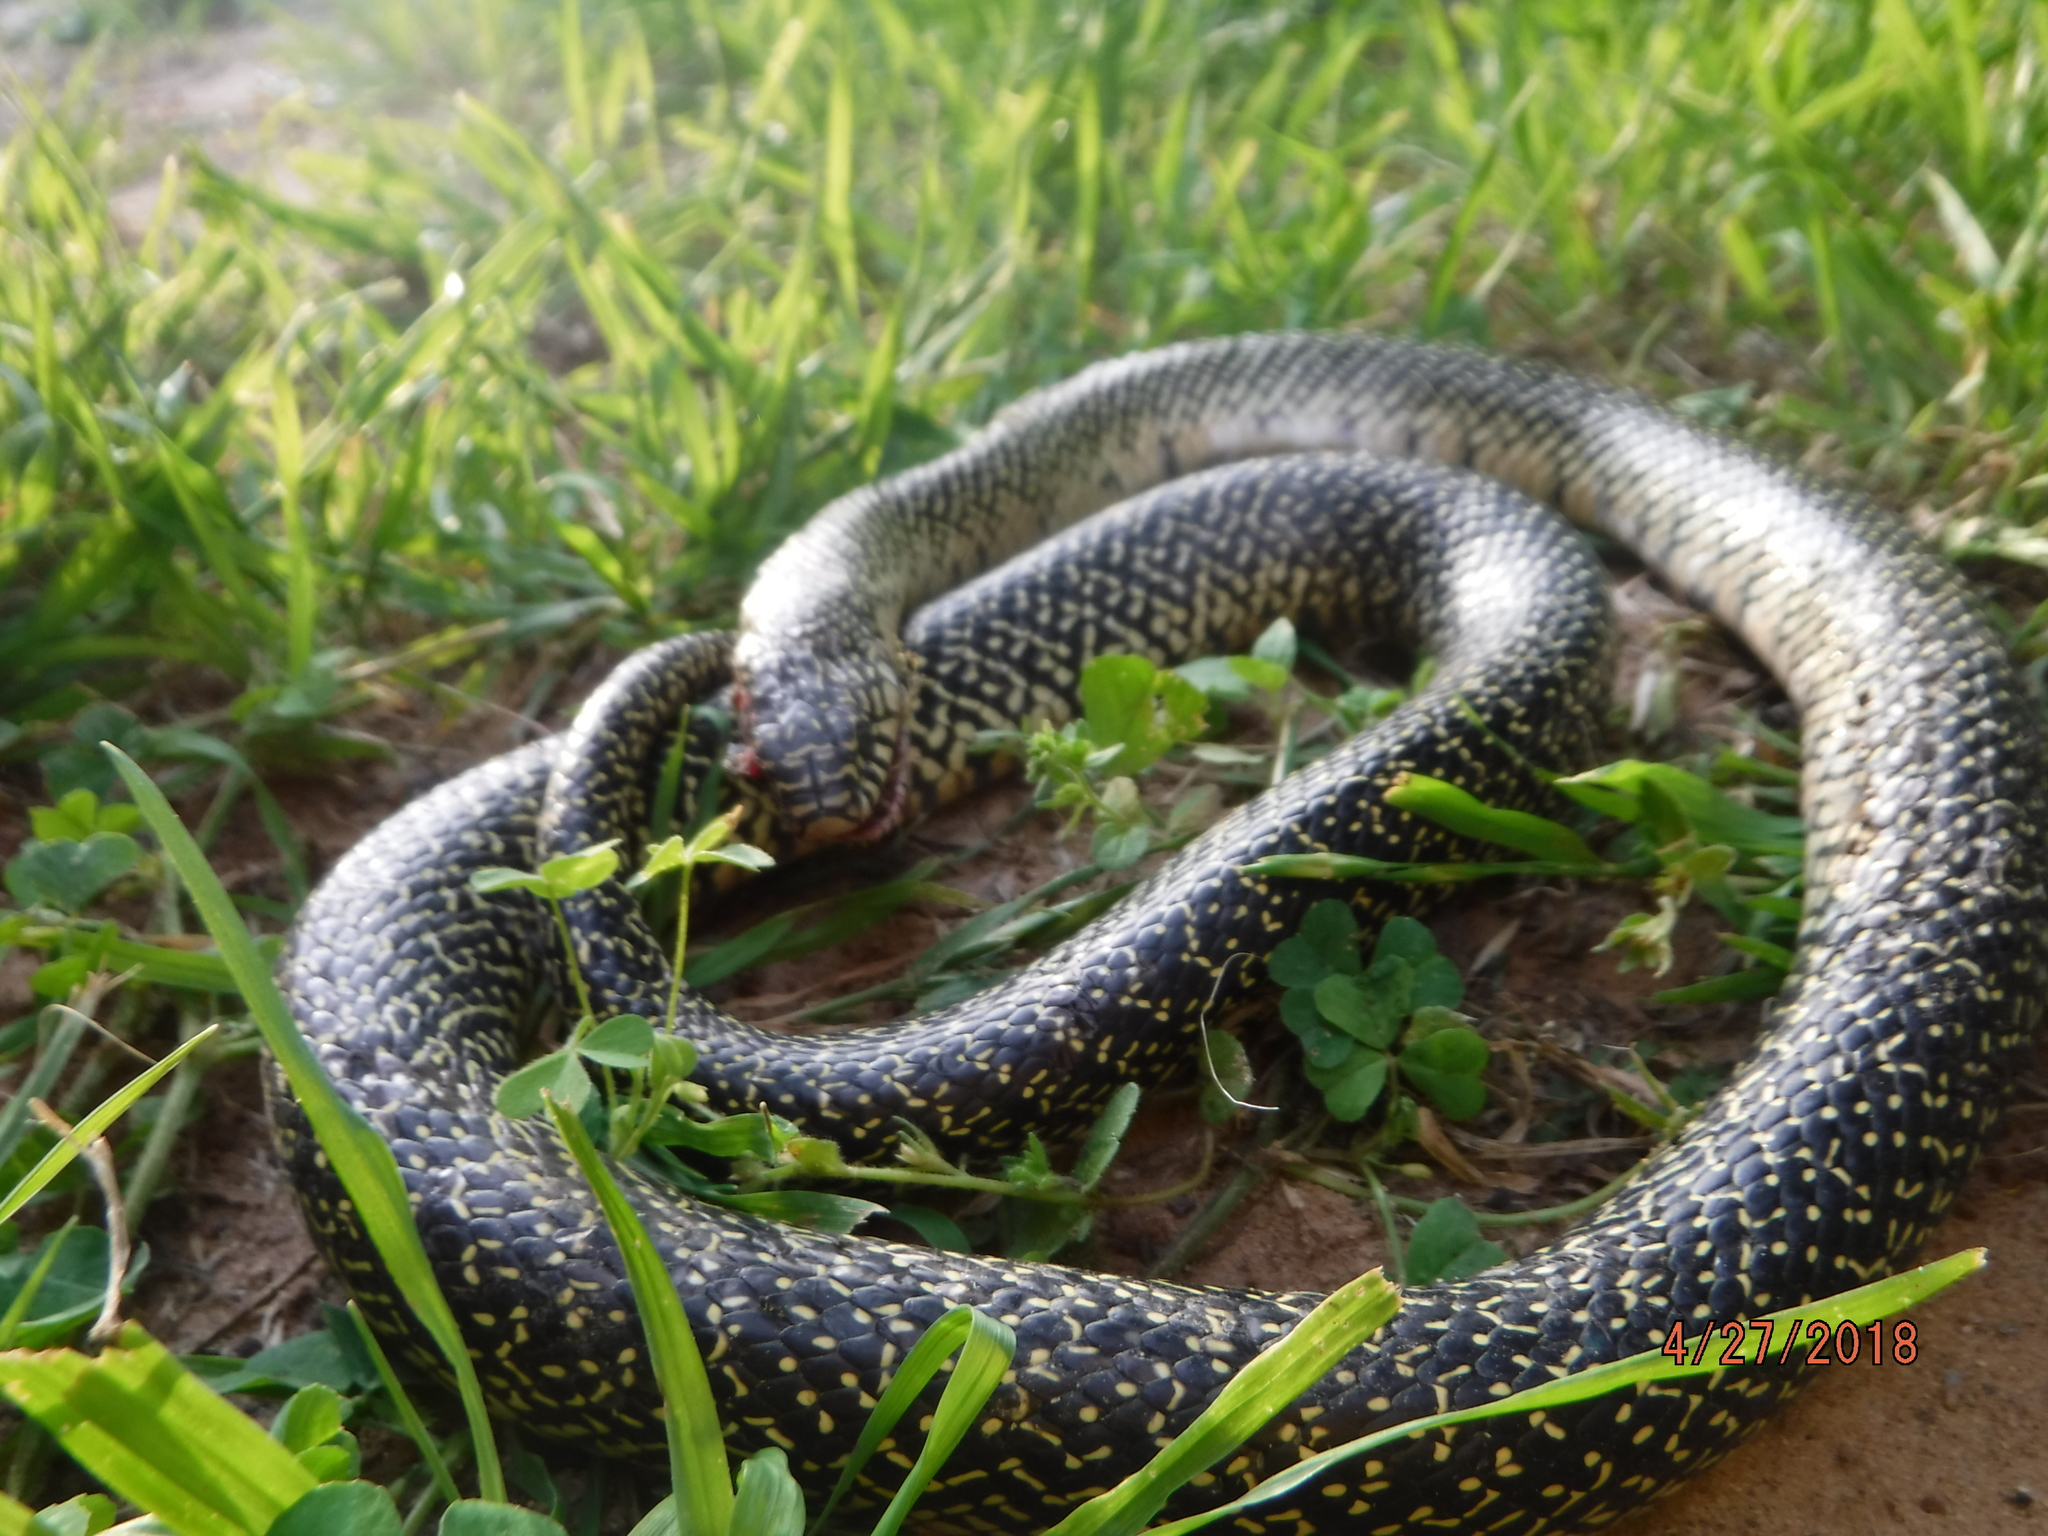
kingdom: Animalia
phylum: Chordata
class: Squamata
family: Colubridae
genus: Lampropeltis
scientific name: Lampropeltis holbrooki
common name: Speckled kingsnake
